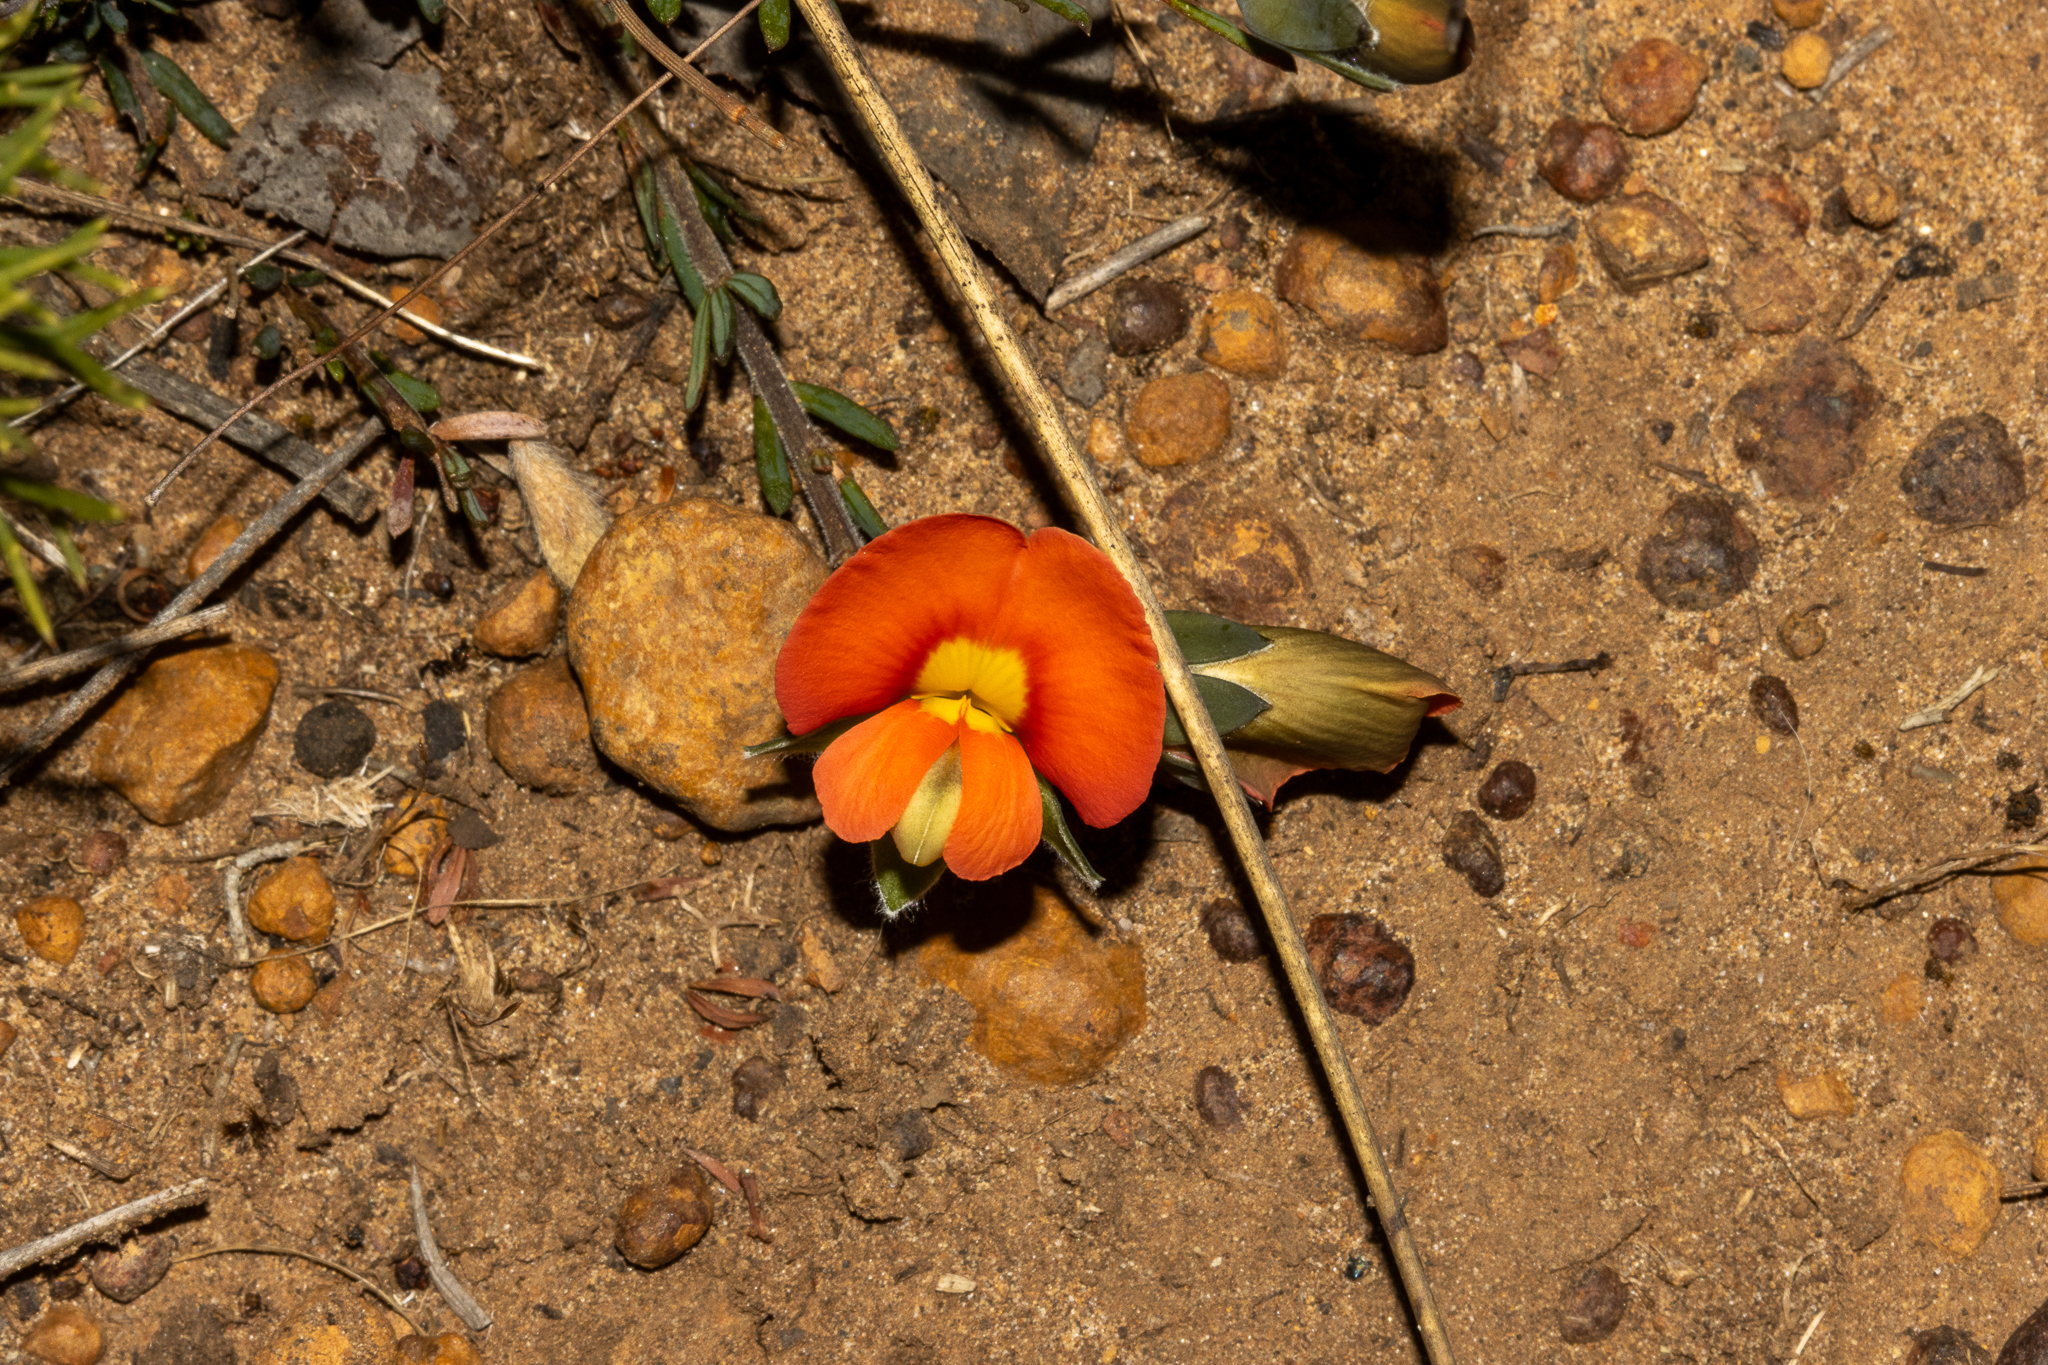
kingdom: Plantae
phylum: Tracheophyta
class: Magnoliopsida
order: Fabales
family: Fabaceae
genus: Gompholobium
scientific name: Gompholobium ecostatum
